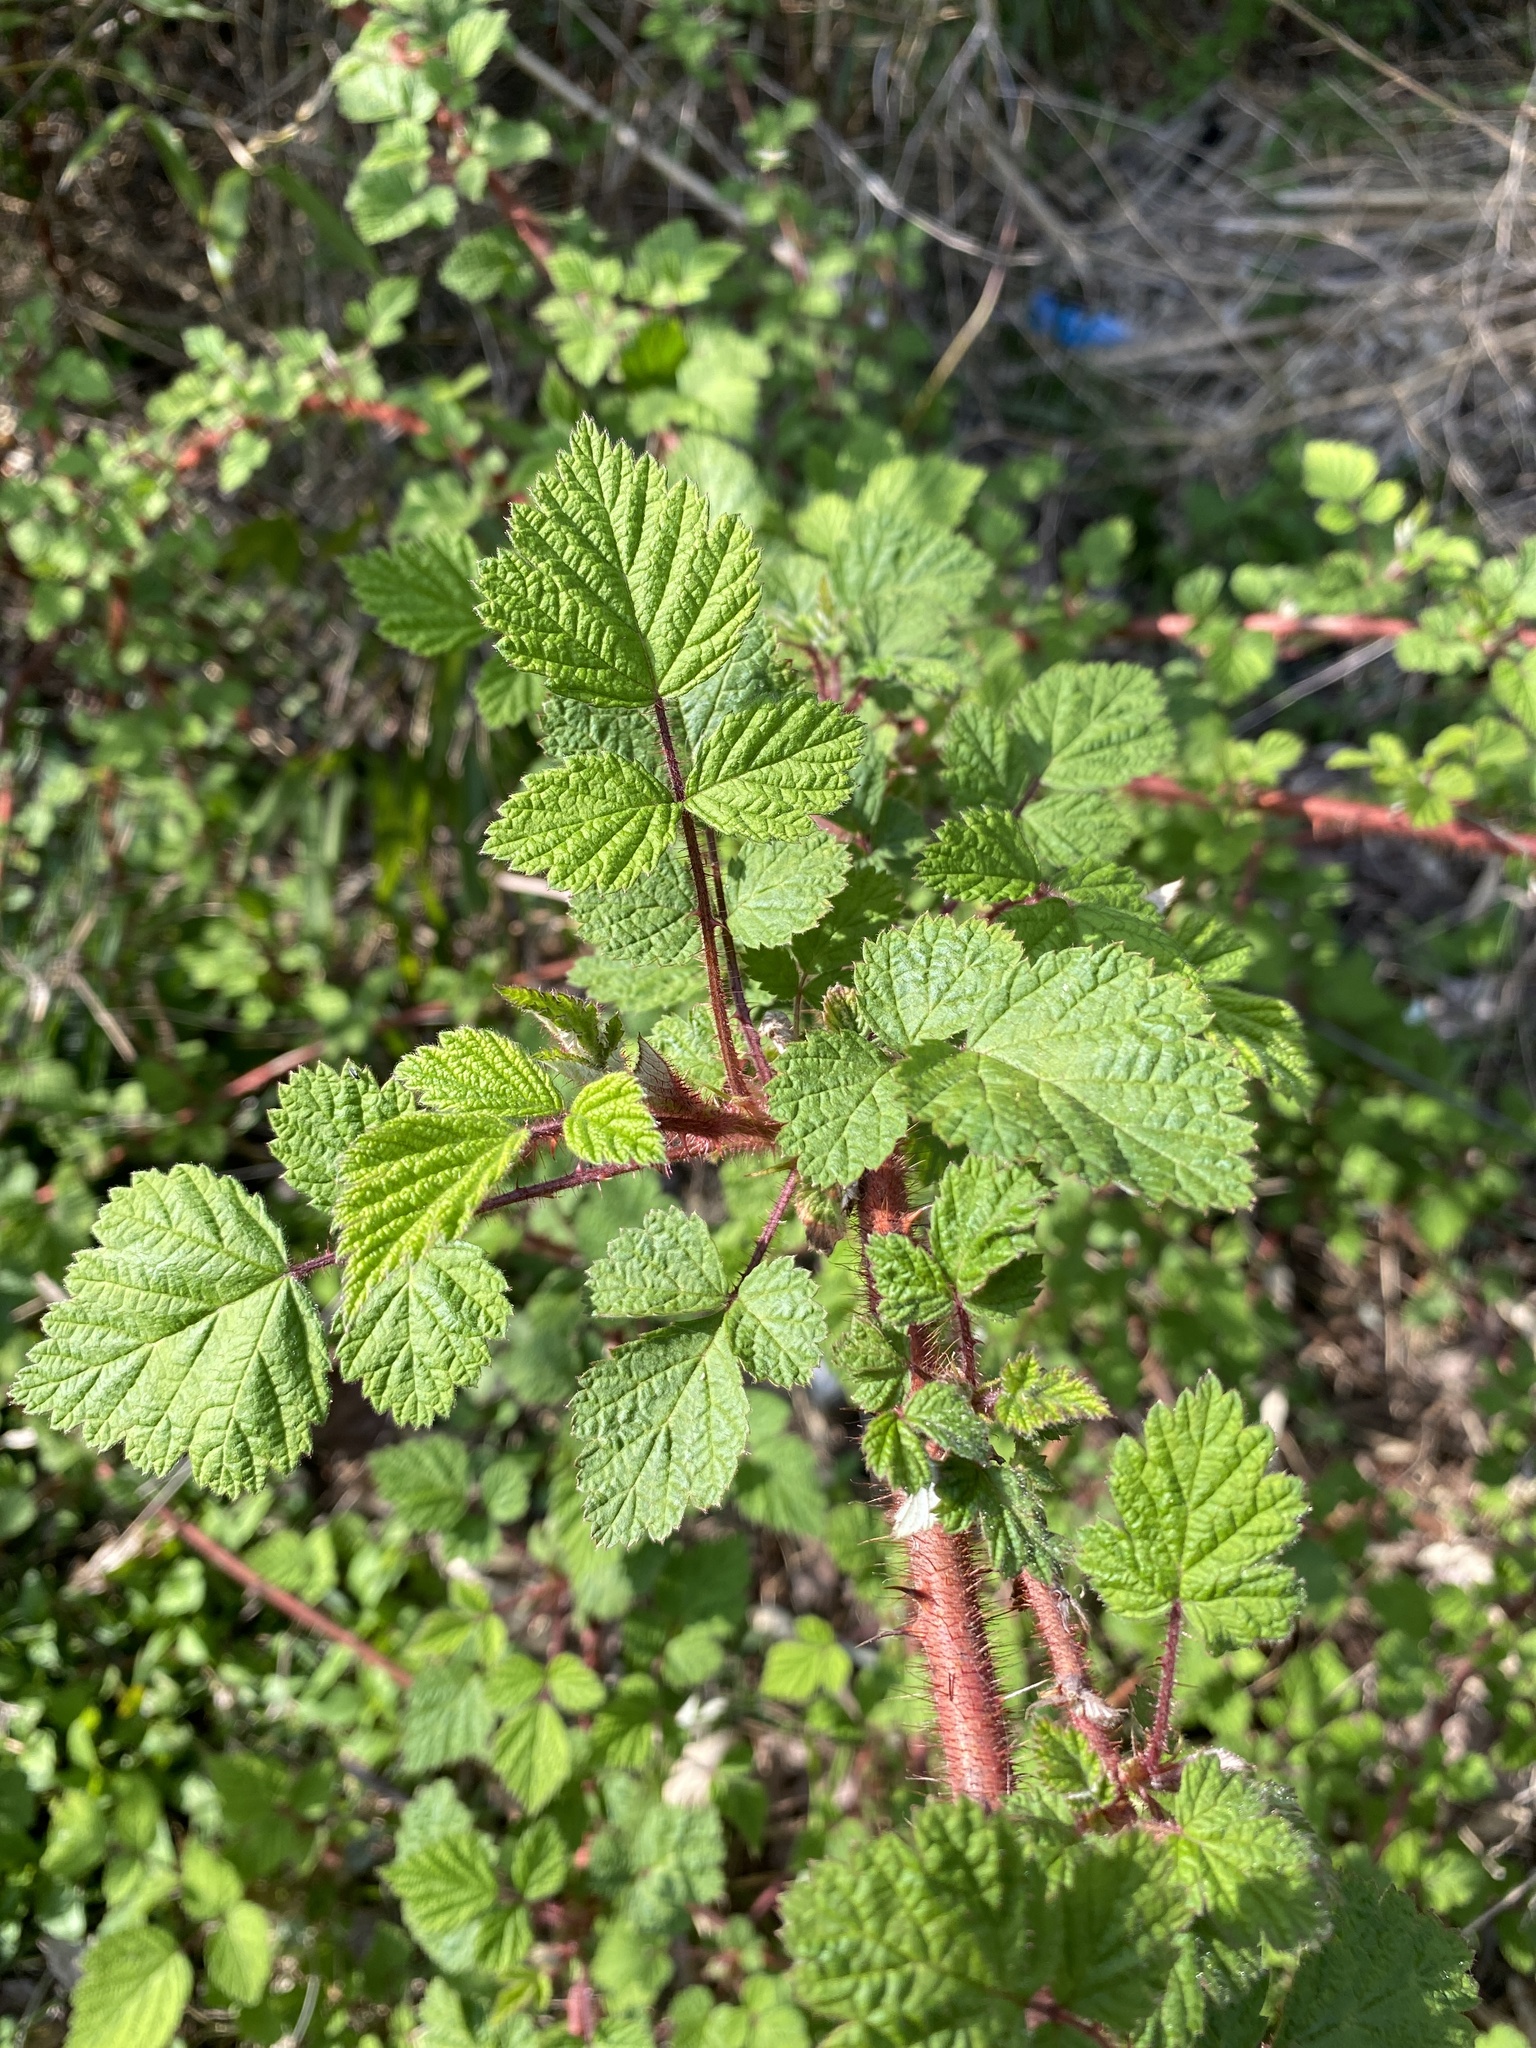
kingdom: Plantae
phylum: Tracheophyta
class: Magnoliopsida
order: Rosales
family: Rosaceae
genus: Rubus
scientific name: Rubus phoenicolasius
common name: Japanese wineberry
